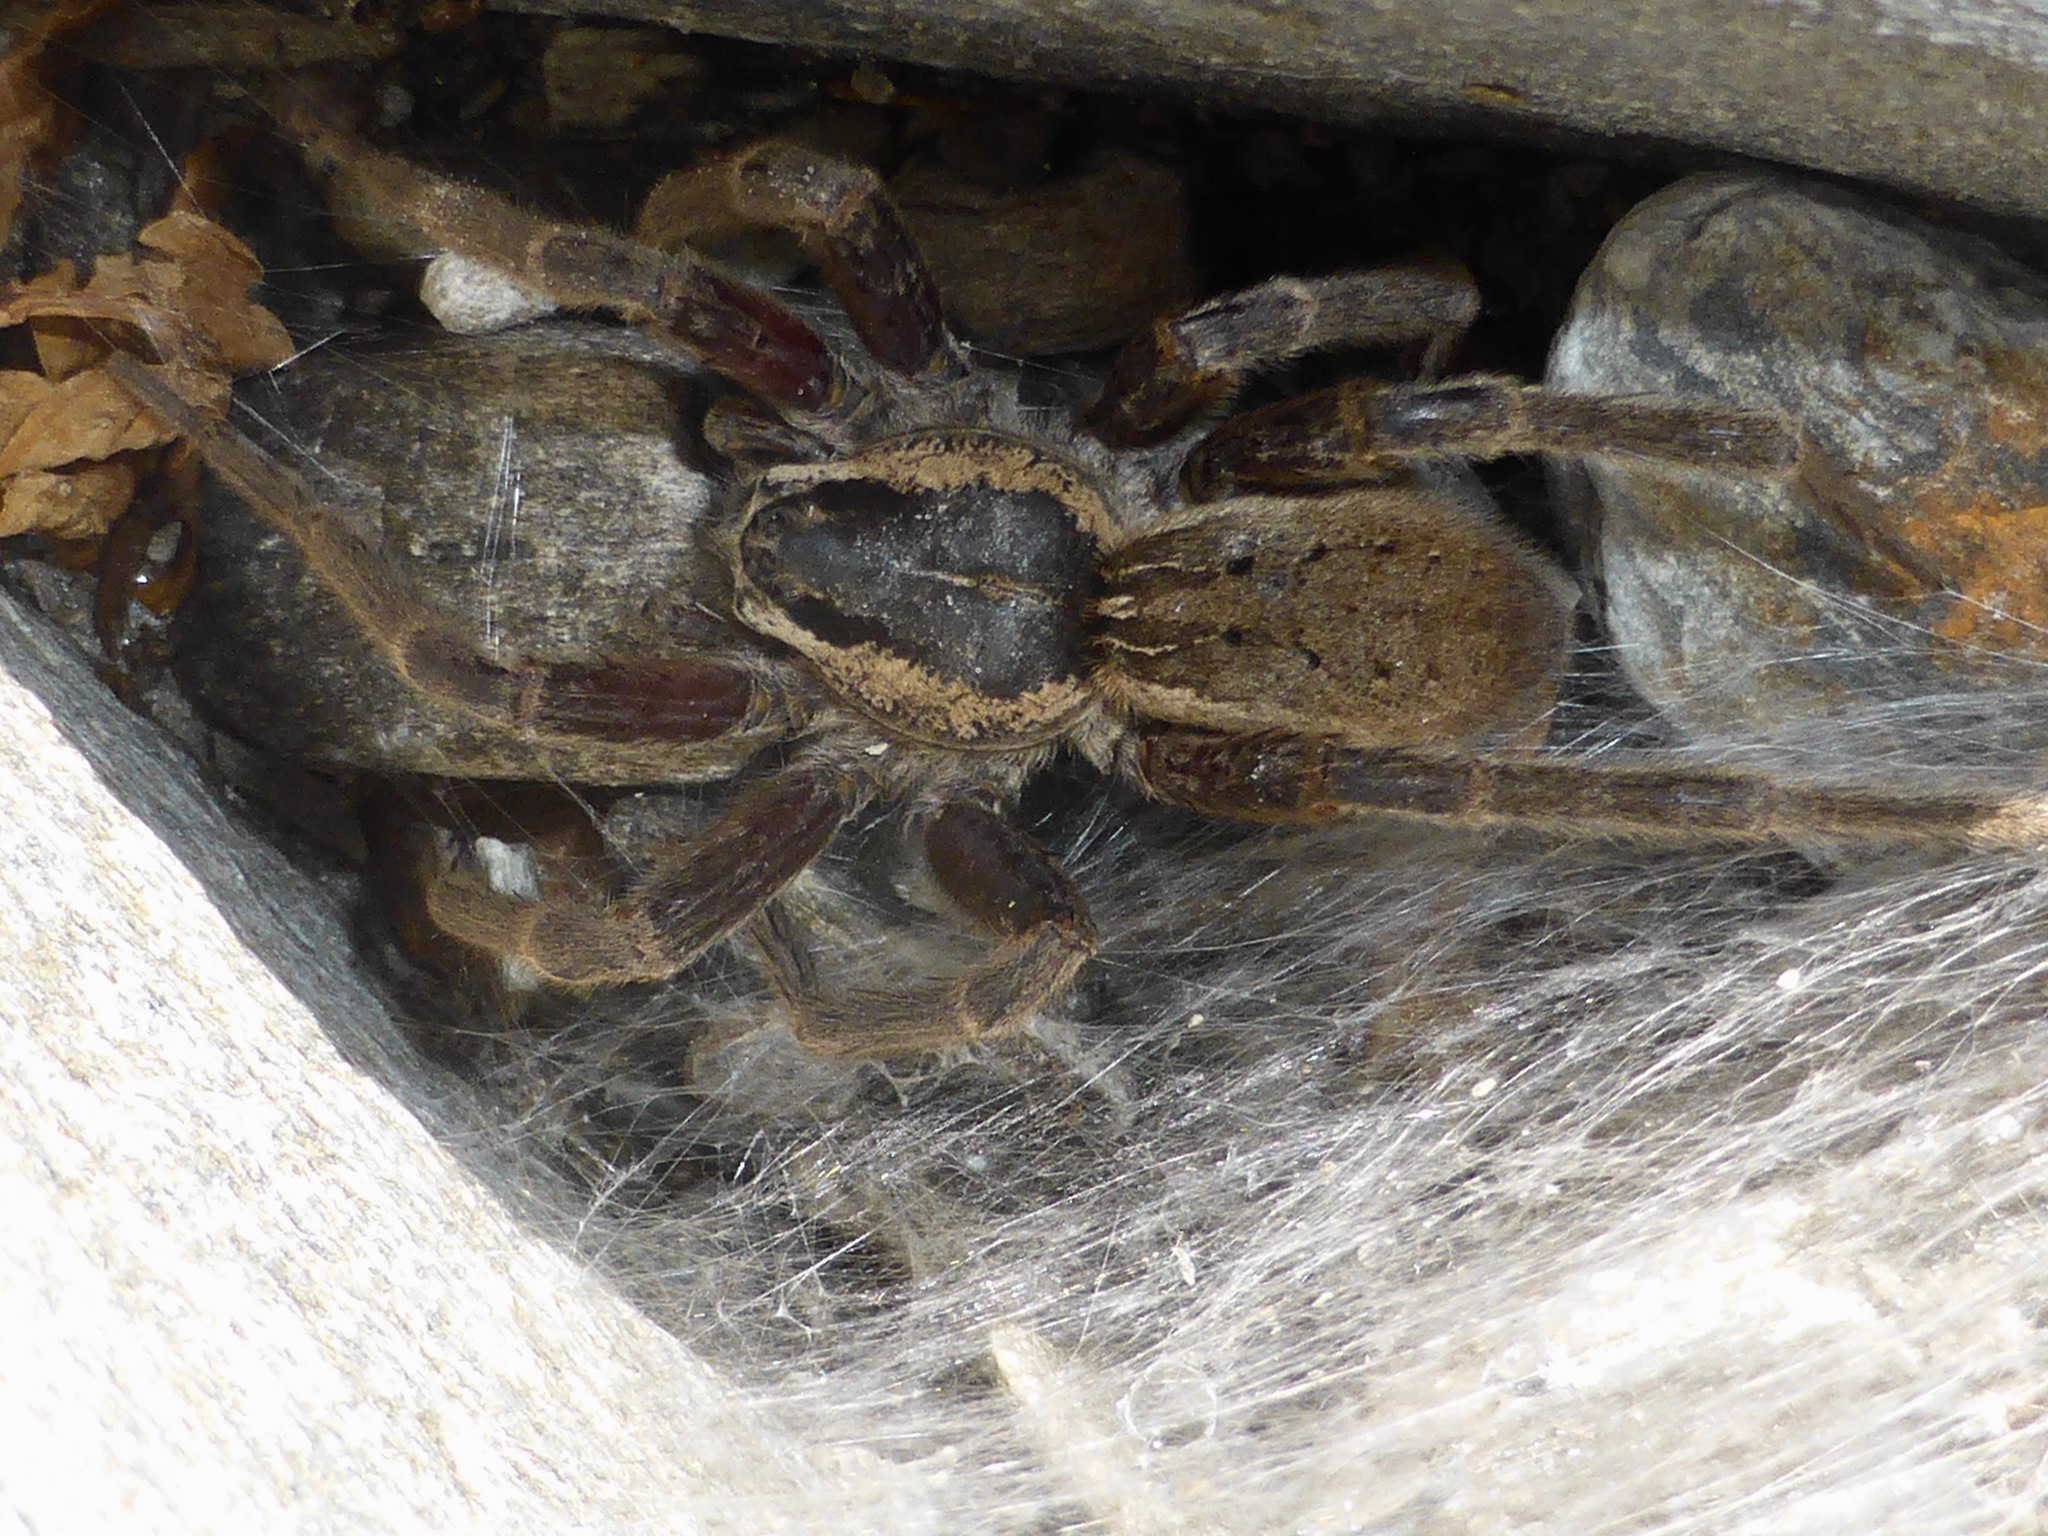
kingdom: Animalia
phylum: Arthropoda
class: Arachnida
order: Araneae
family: Pisauridae
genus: Dolomedes
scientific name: Dolomedes aquaticus
